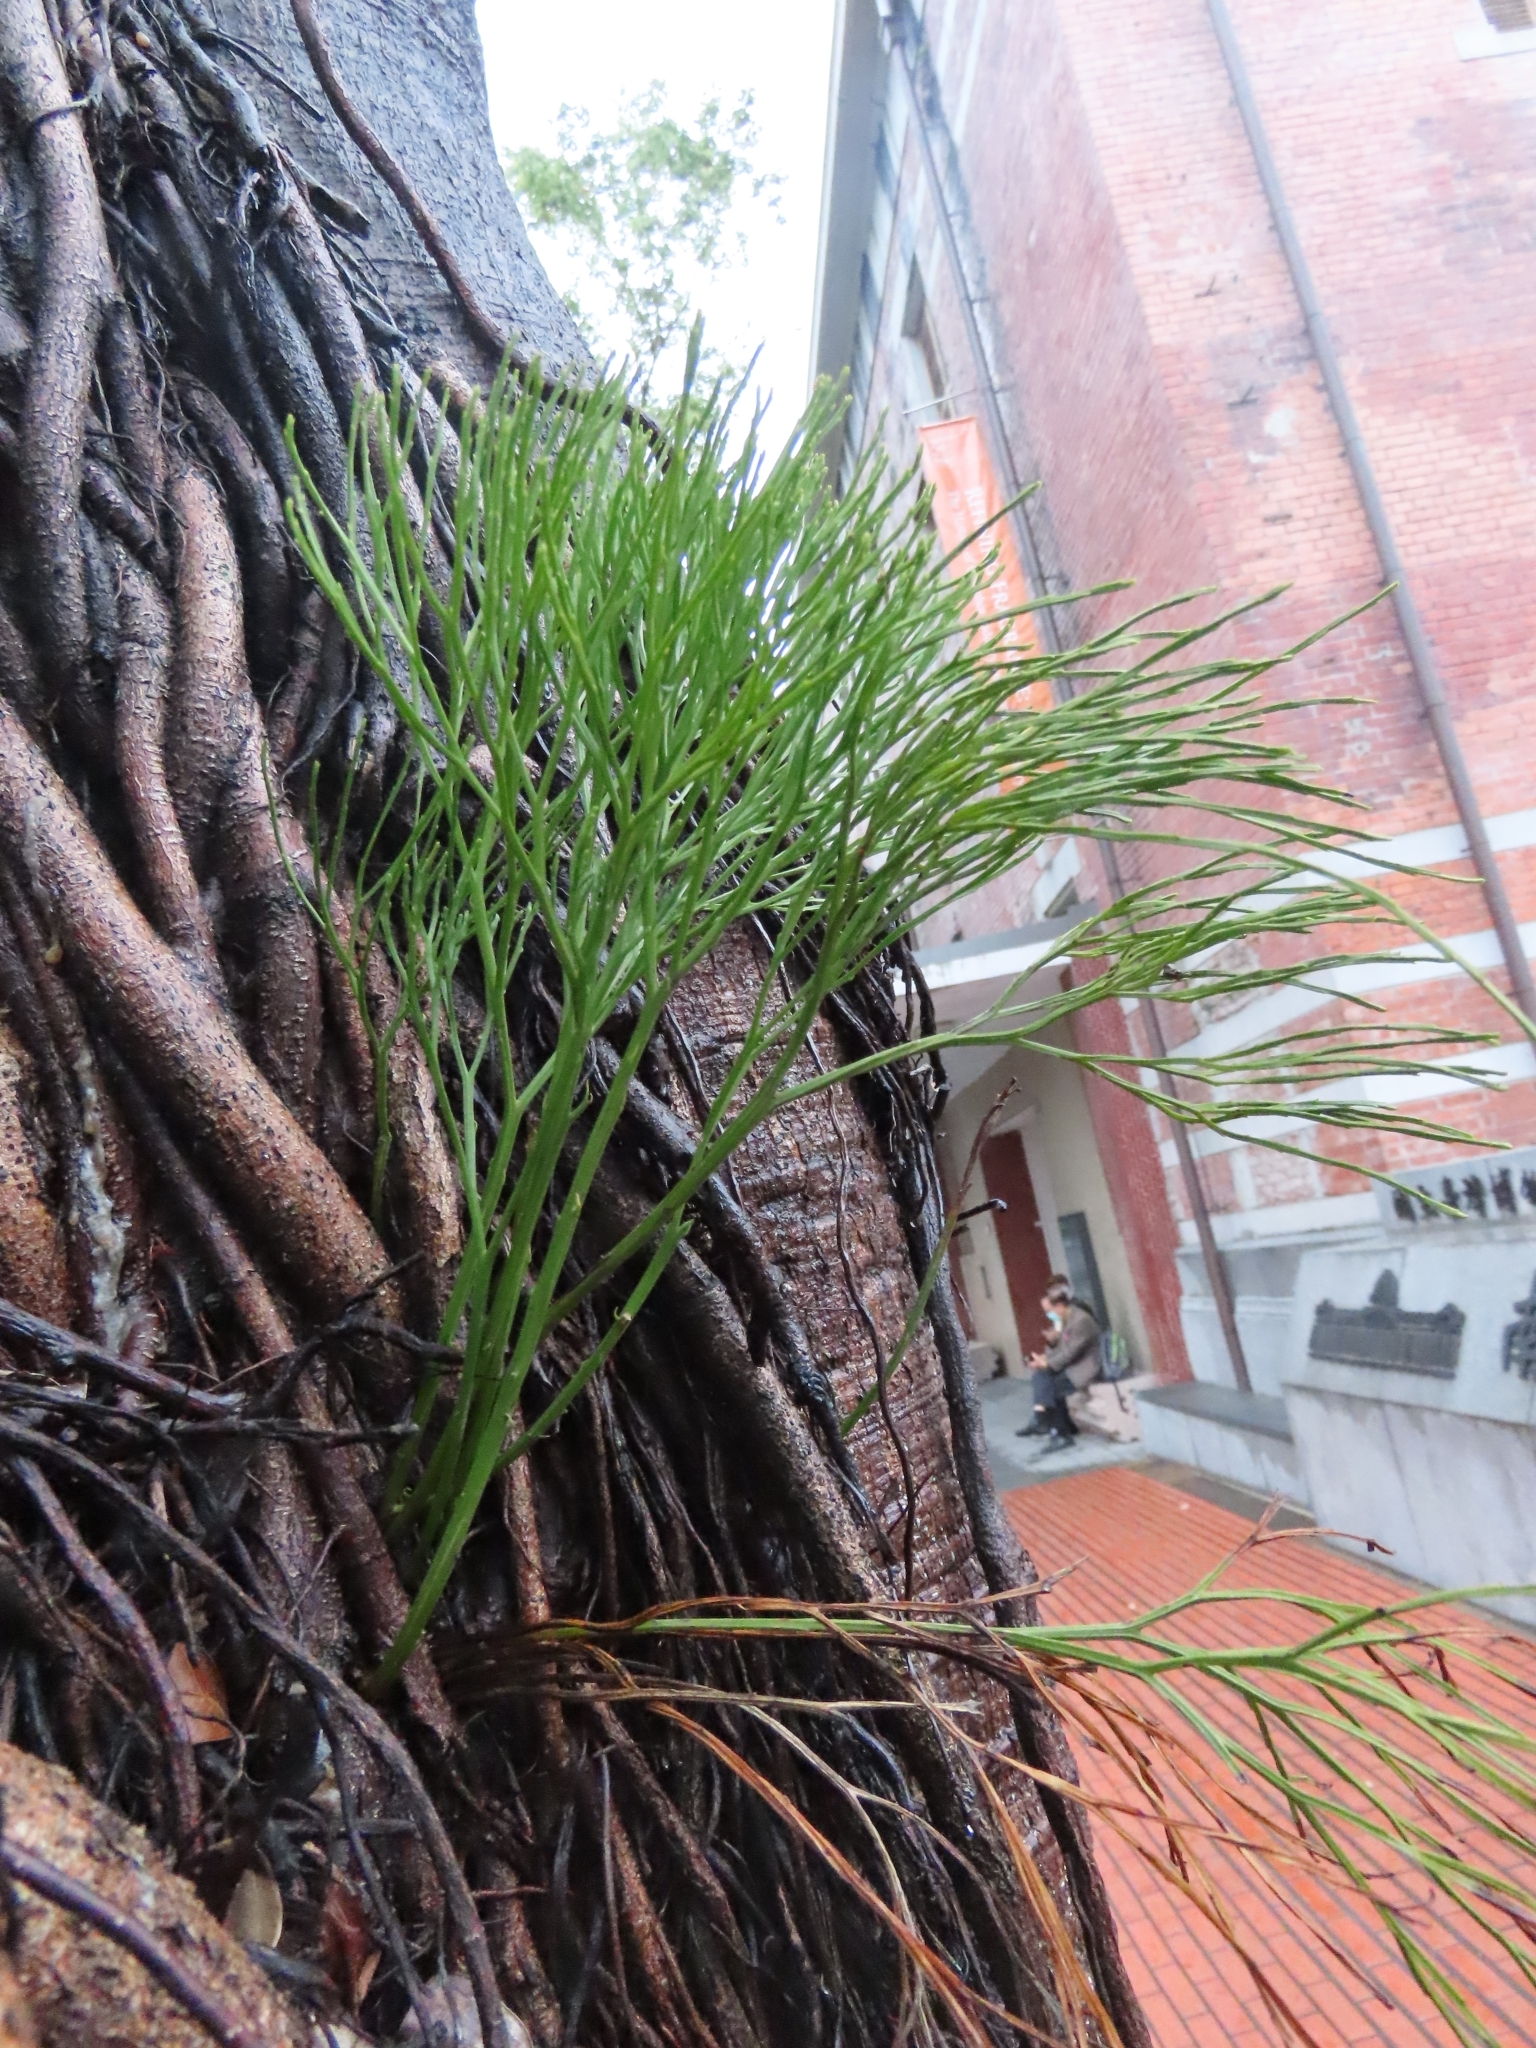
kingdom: Plantae
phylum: Tracheophyta
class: Polypodiopsida
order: Psilotales
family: Psilotaceae
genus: Psilotum
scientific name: Psilotum nudum
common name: Skeleton fork fern
